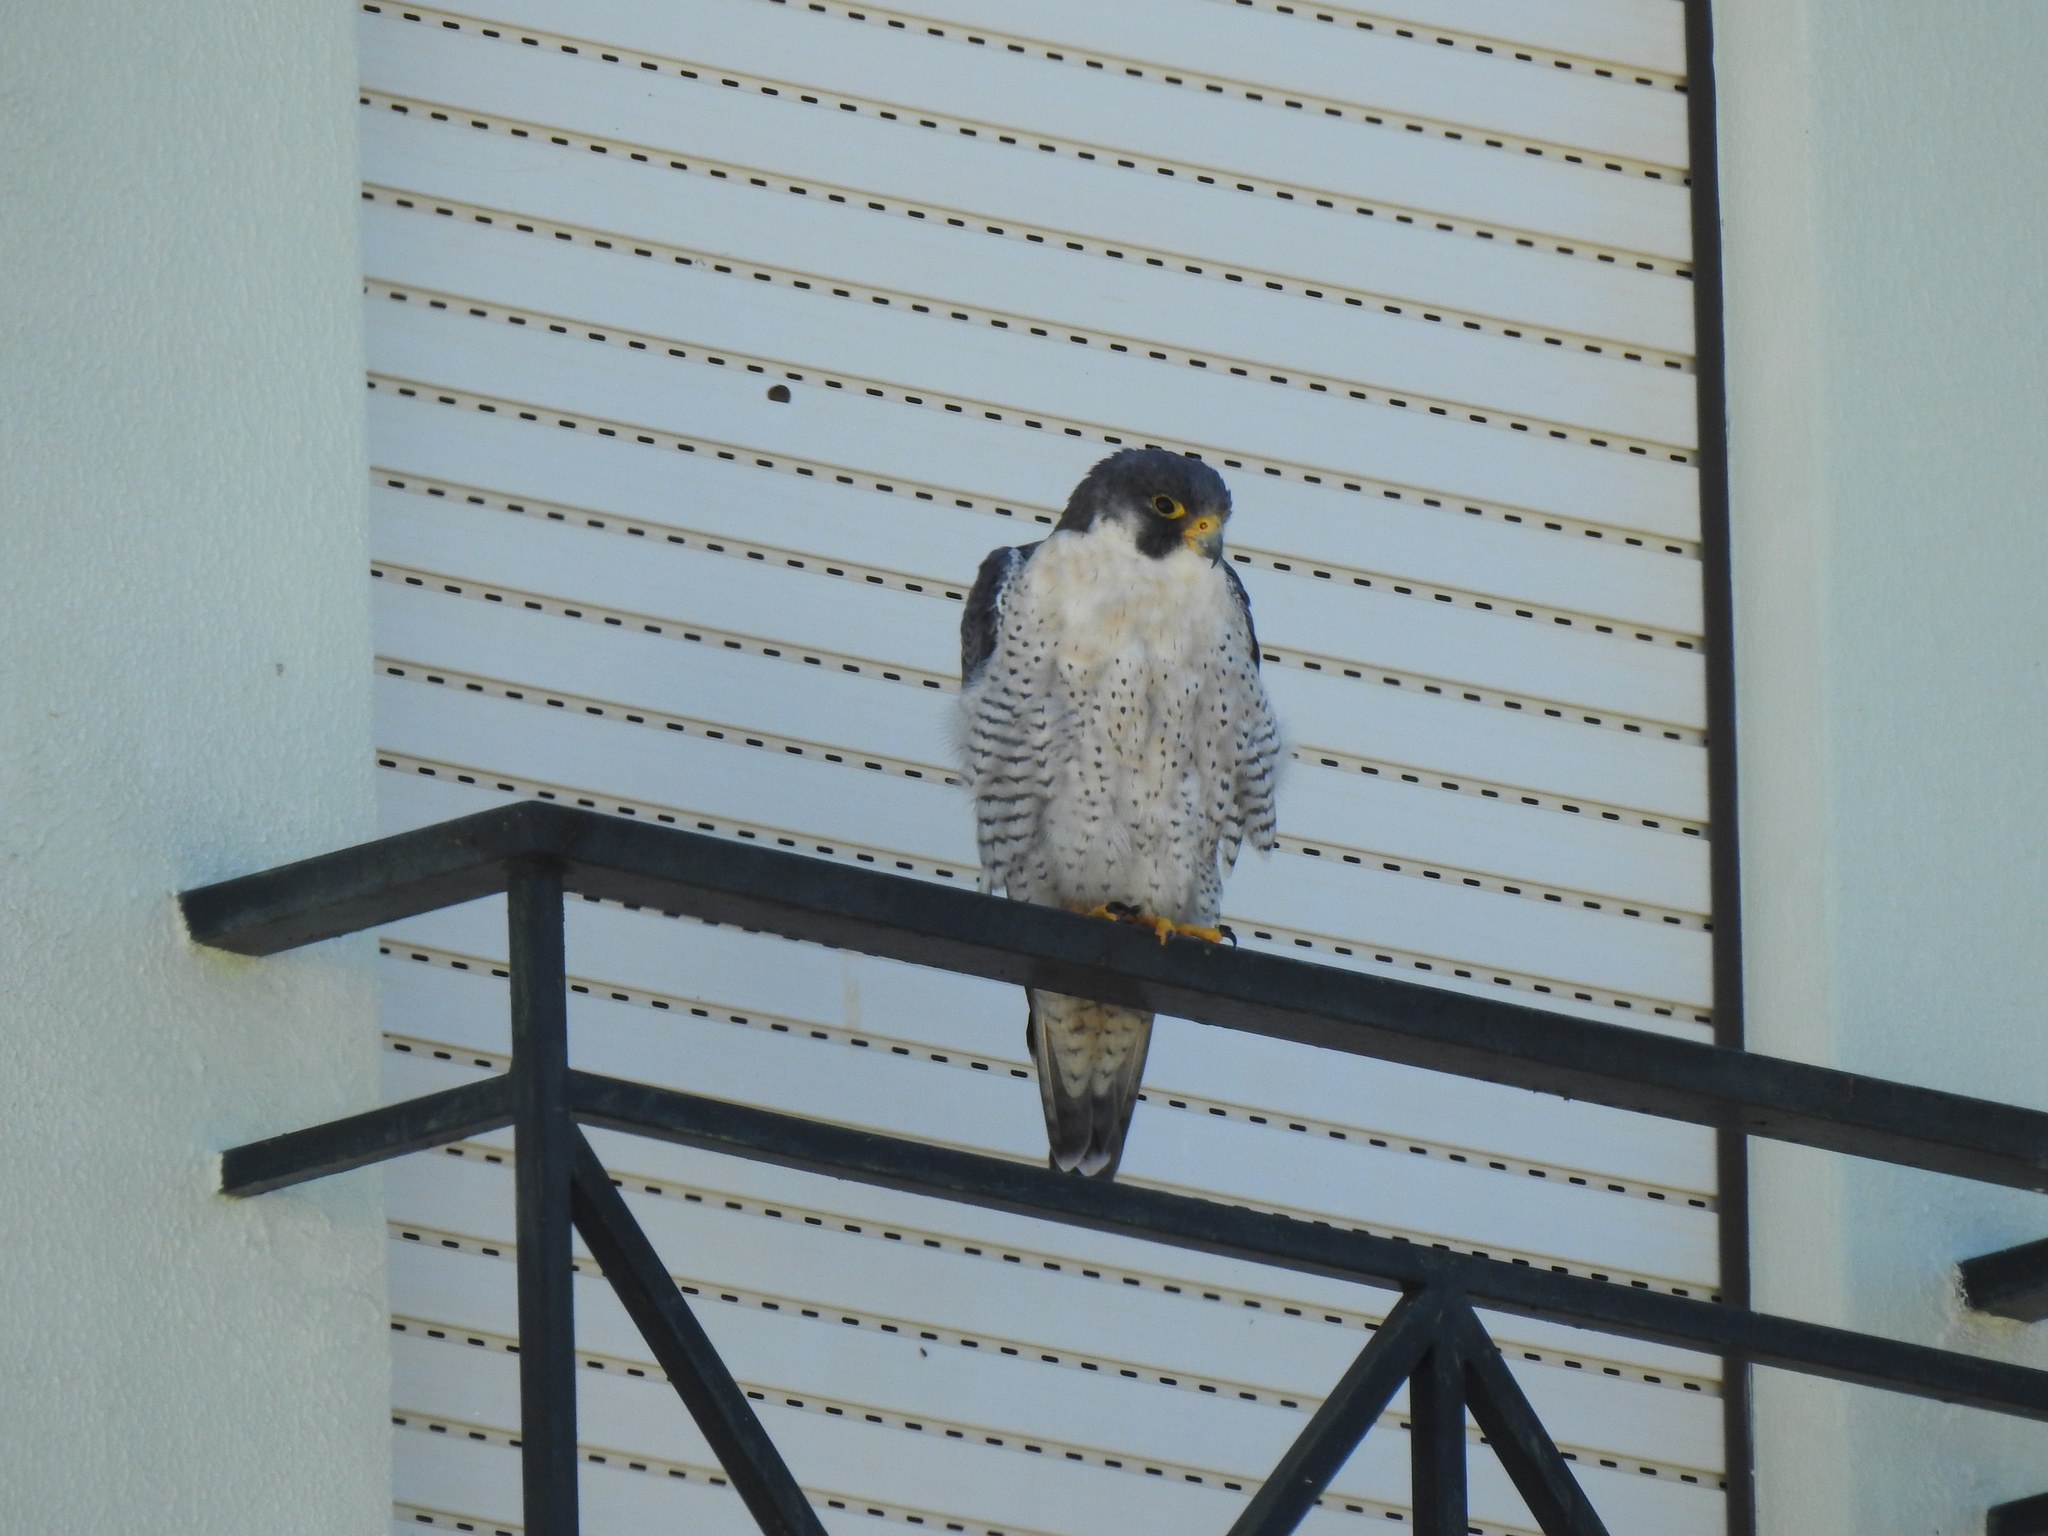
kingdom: Animalia
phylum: Chordata
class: Aves
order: Falconiformes
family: Falconidae
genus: Falco
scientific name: Falco peregrinus
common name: Peregrine falcon
